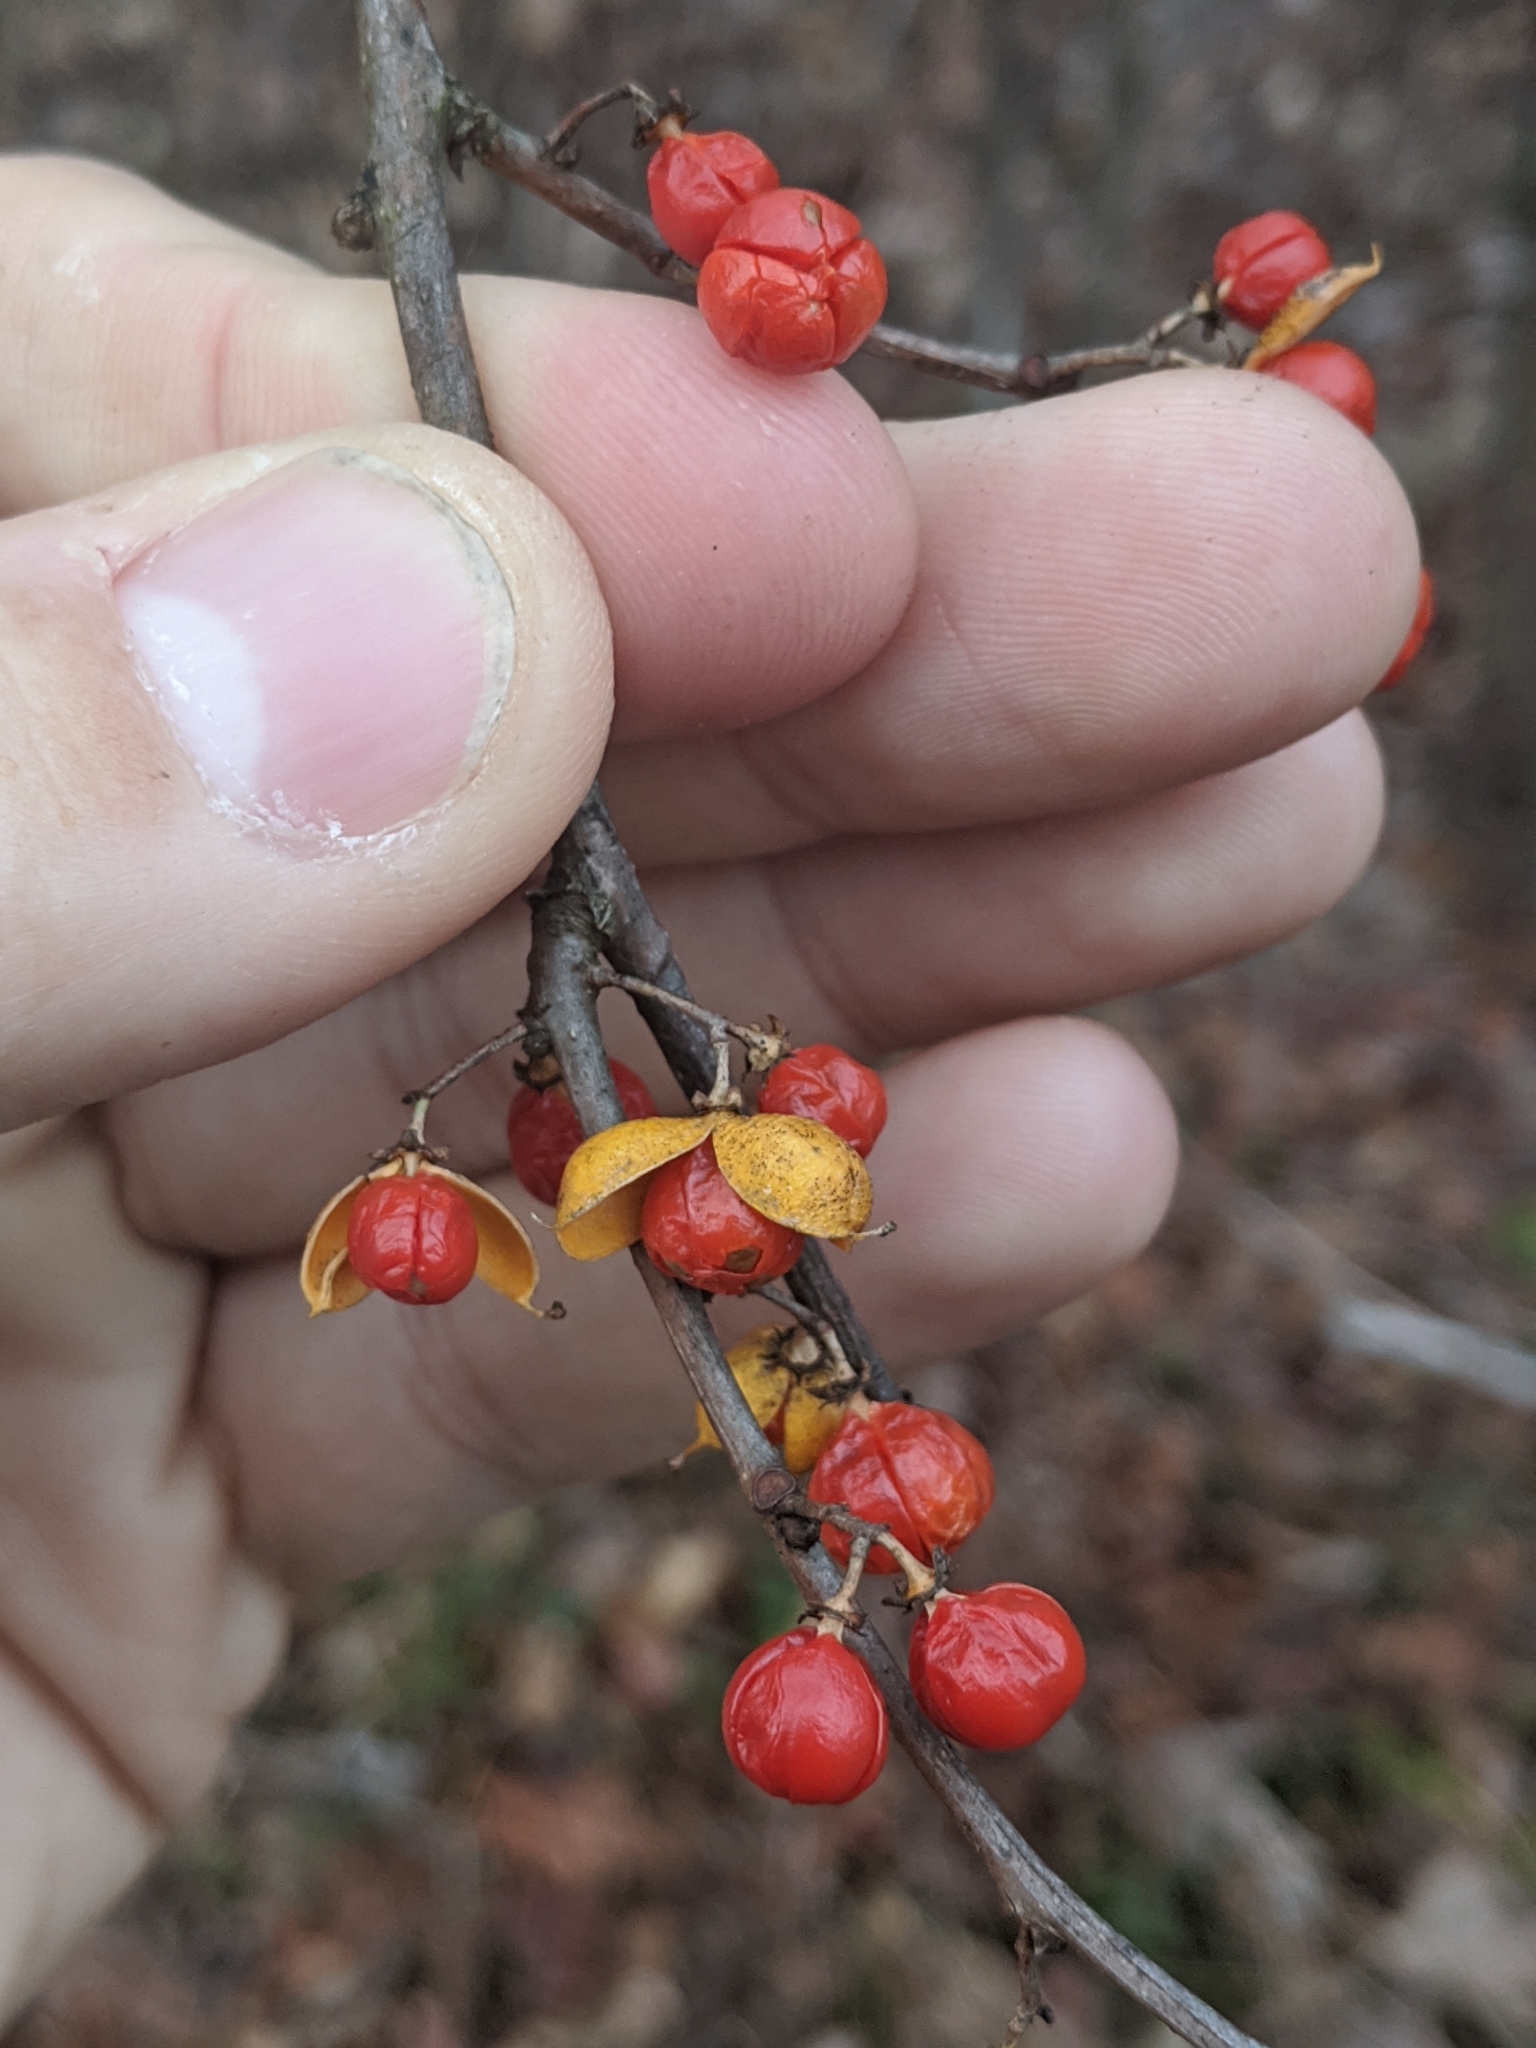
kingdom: Plantae
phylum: Tracheophyta
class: Magnoliopsida
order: Celastrales
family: Celastraceae
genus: Celastrus
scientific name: Celastrus orbiculatus
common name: Oriental bittersweet
